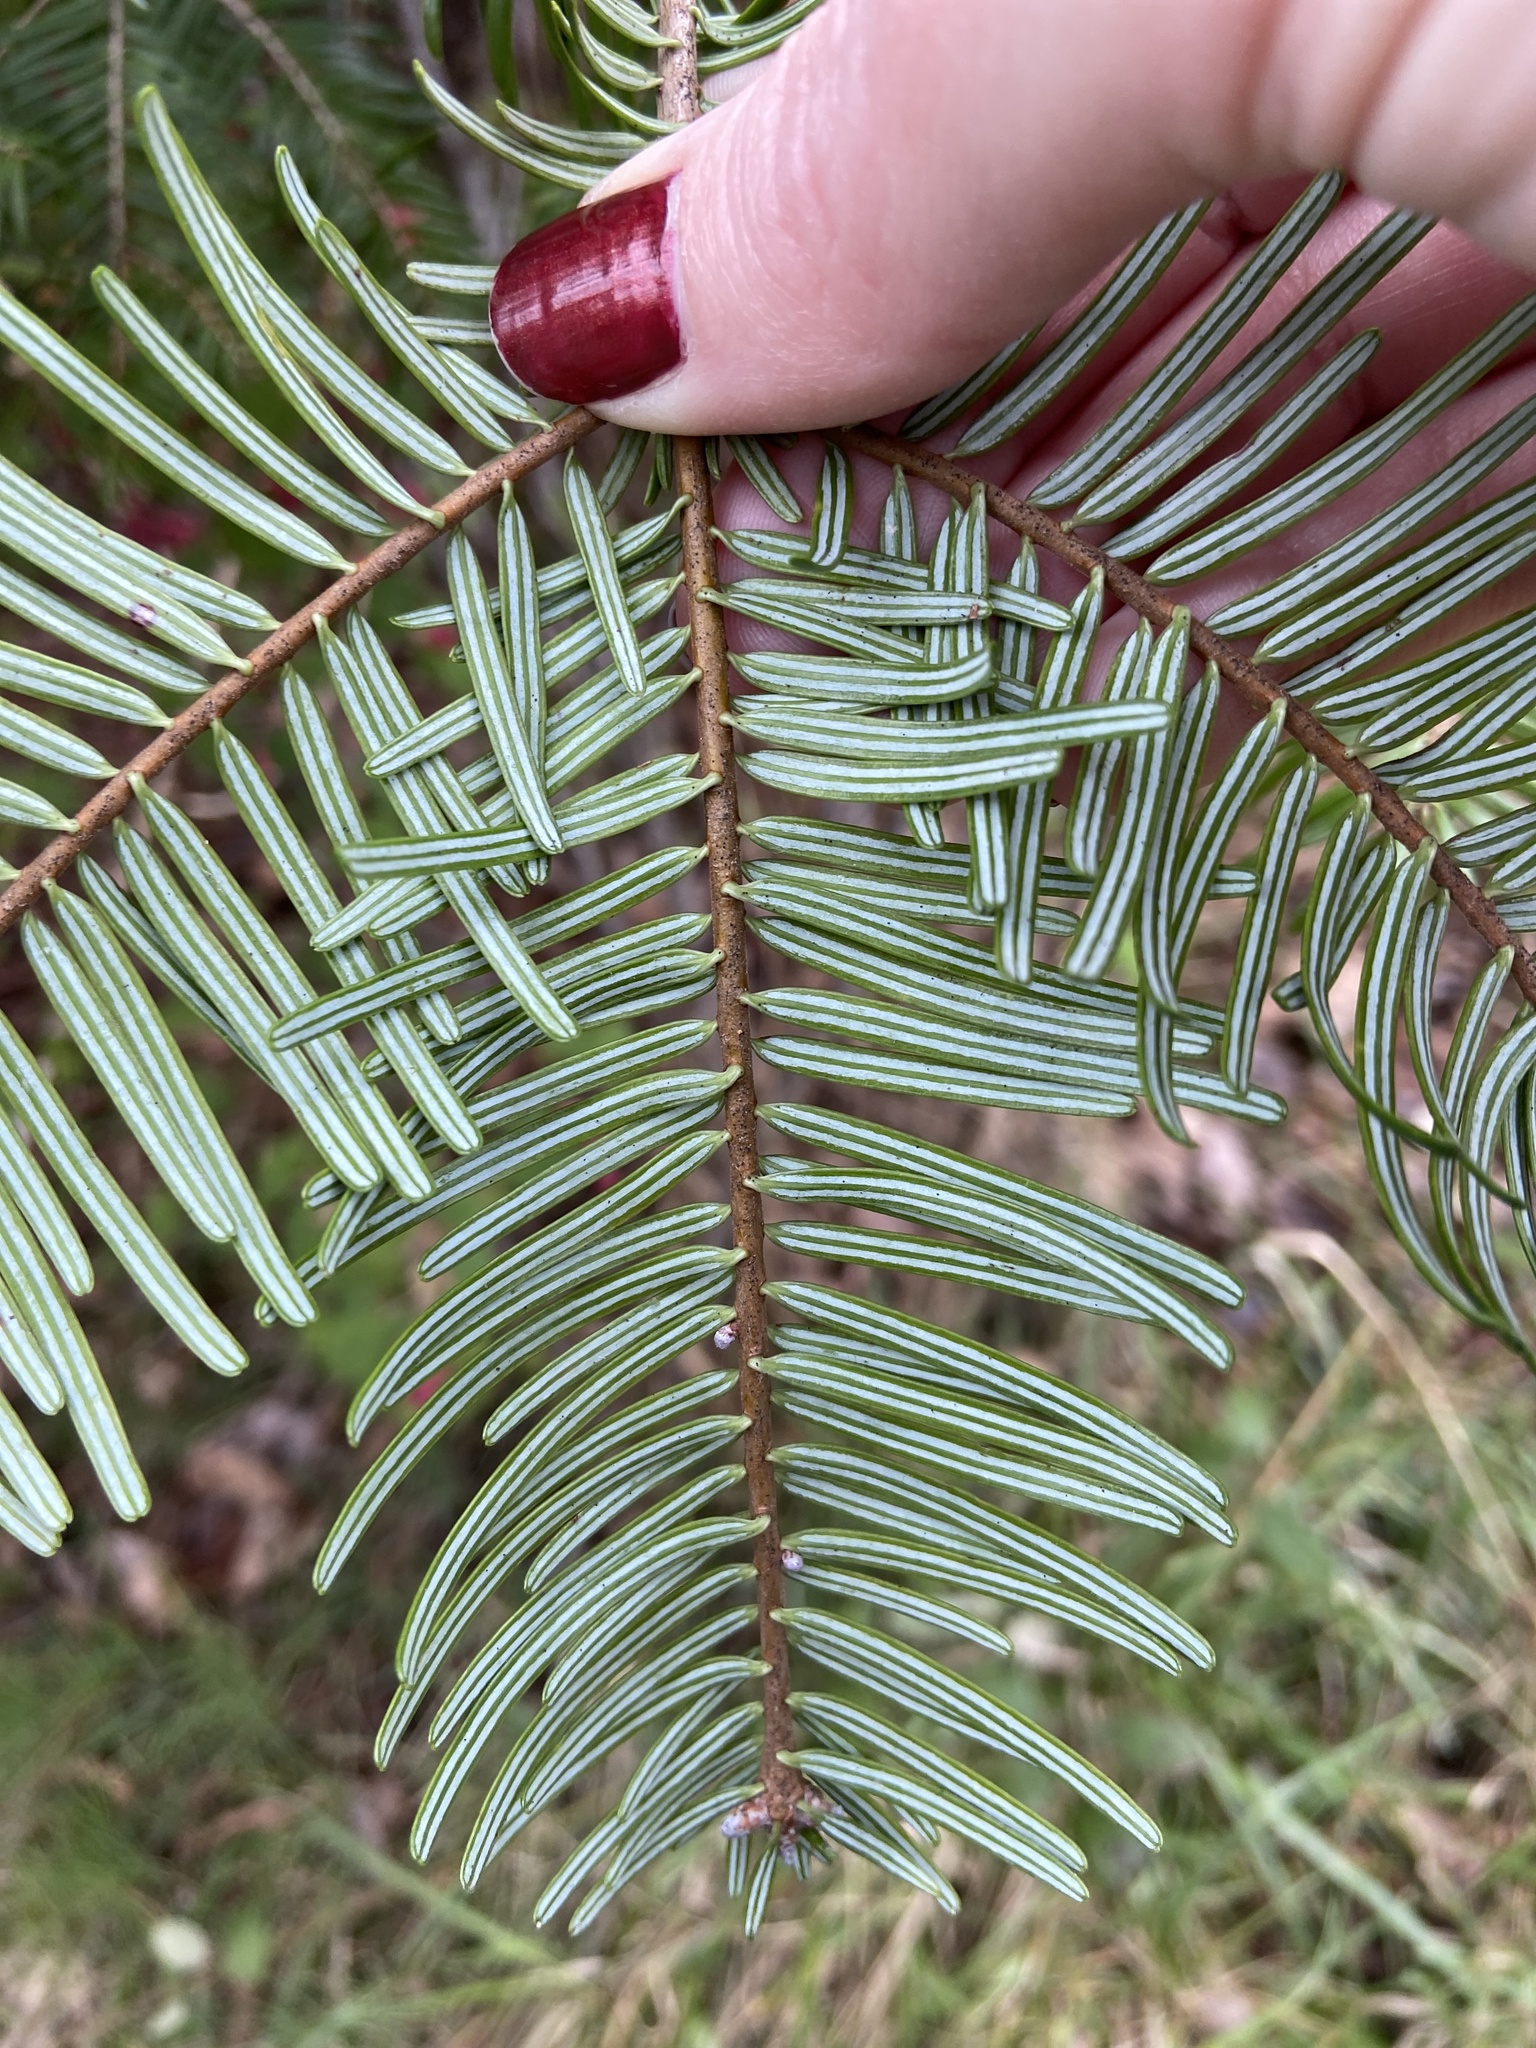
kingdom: Plantae
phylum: Tracheophyta
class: Pinopsida
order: Pinales
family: Pinaceae
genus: Abies
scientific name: Abies grandis
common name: Giant fir
